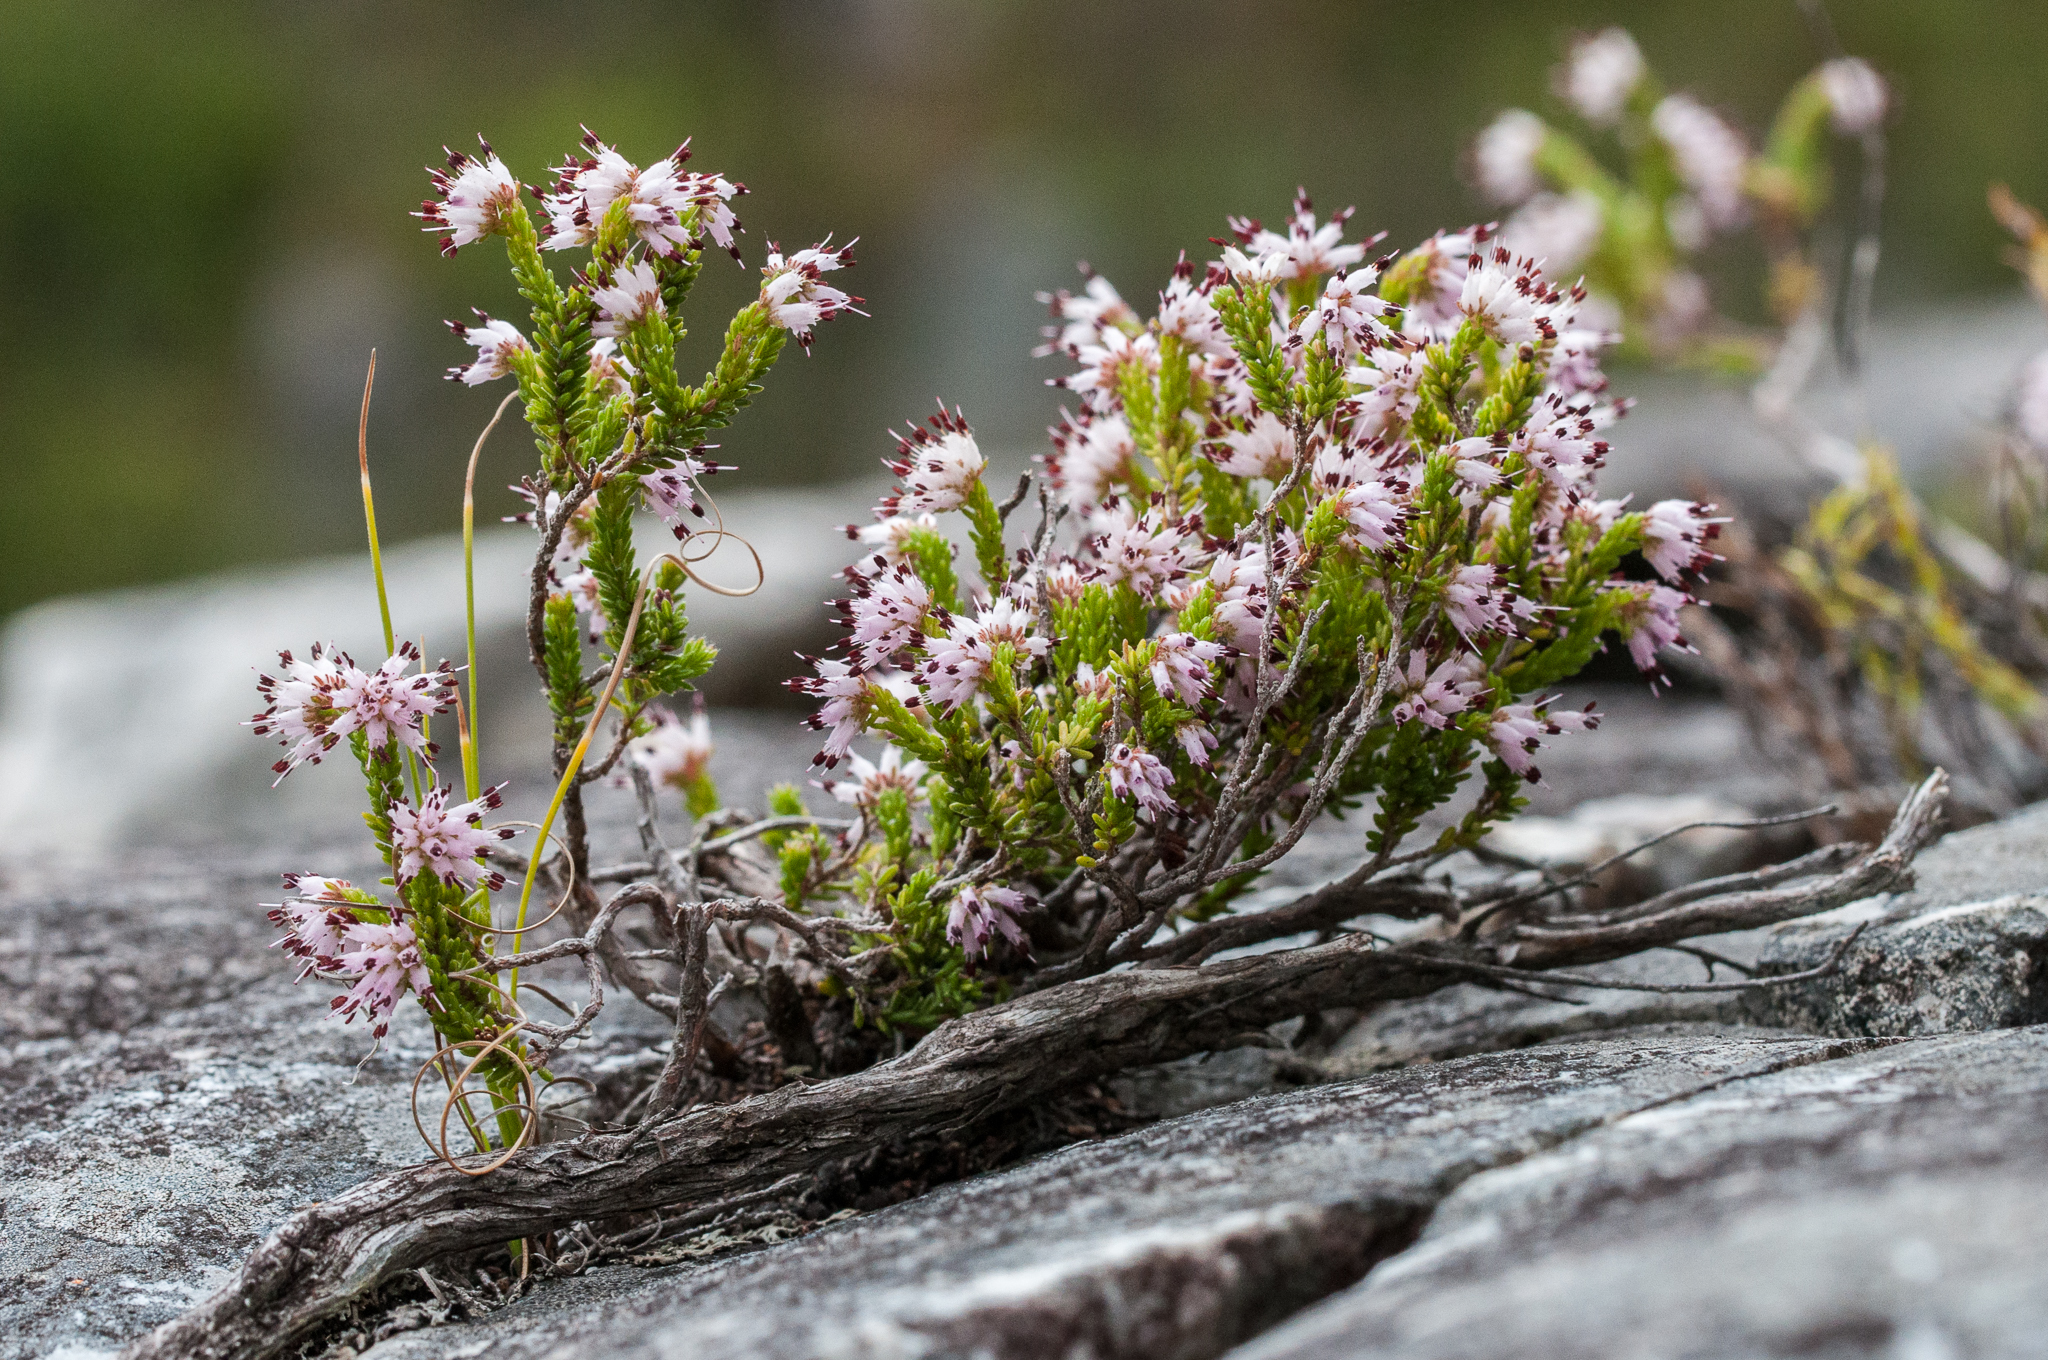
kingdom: Plantae
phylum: Tracheophyta
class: Magnoliopsida
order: Ericales
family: Ericaceae
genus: Erica
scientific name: Erica ericoides
